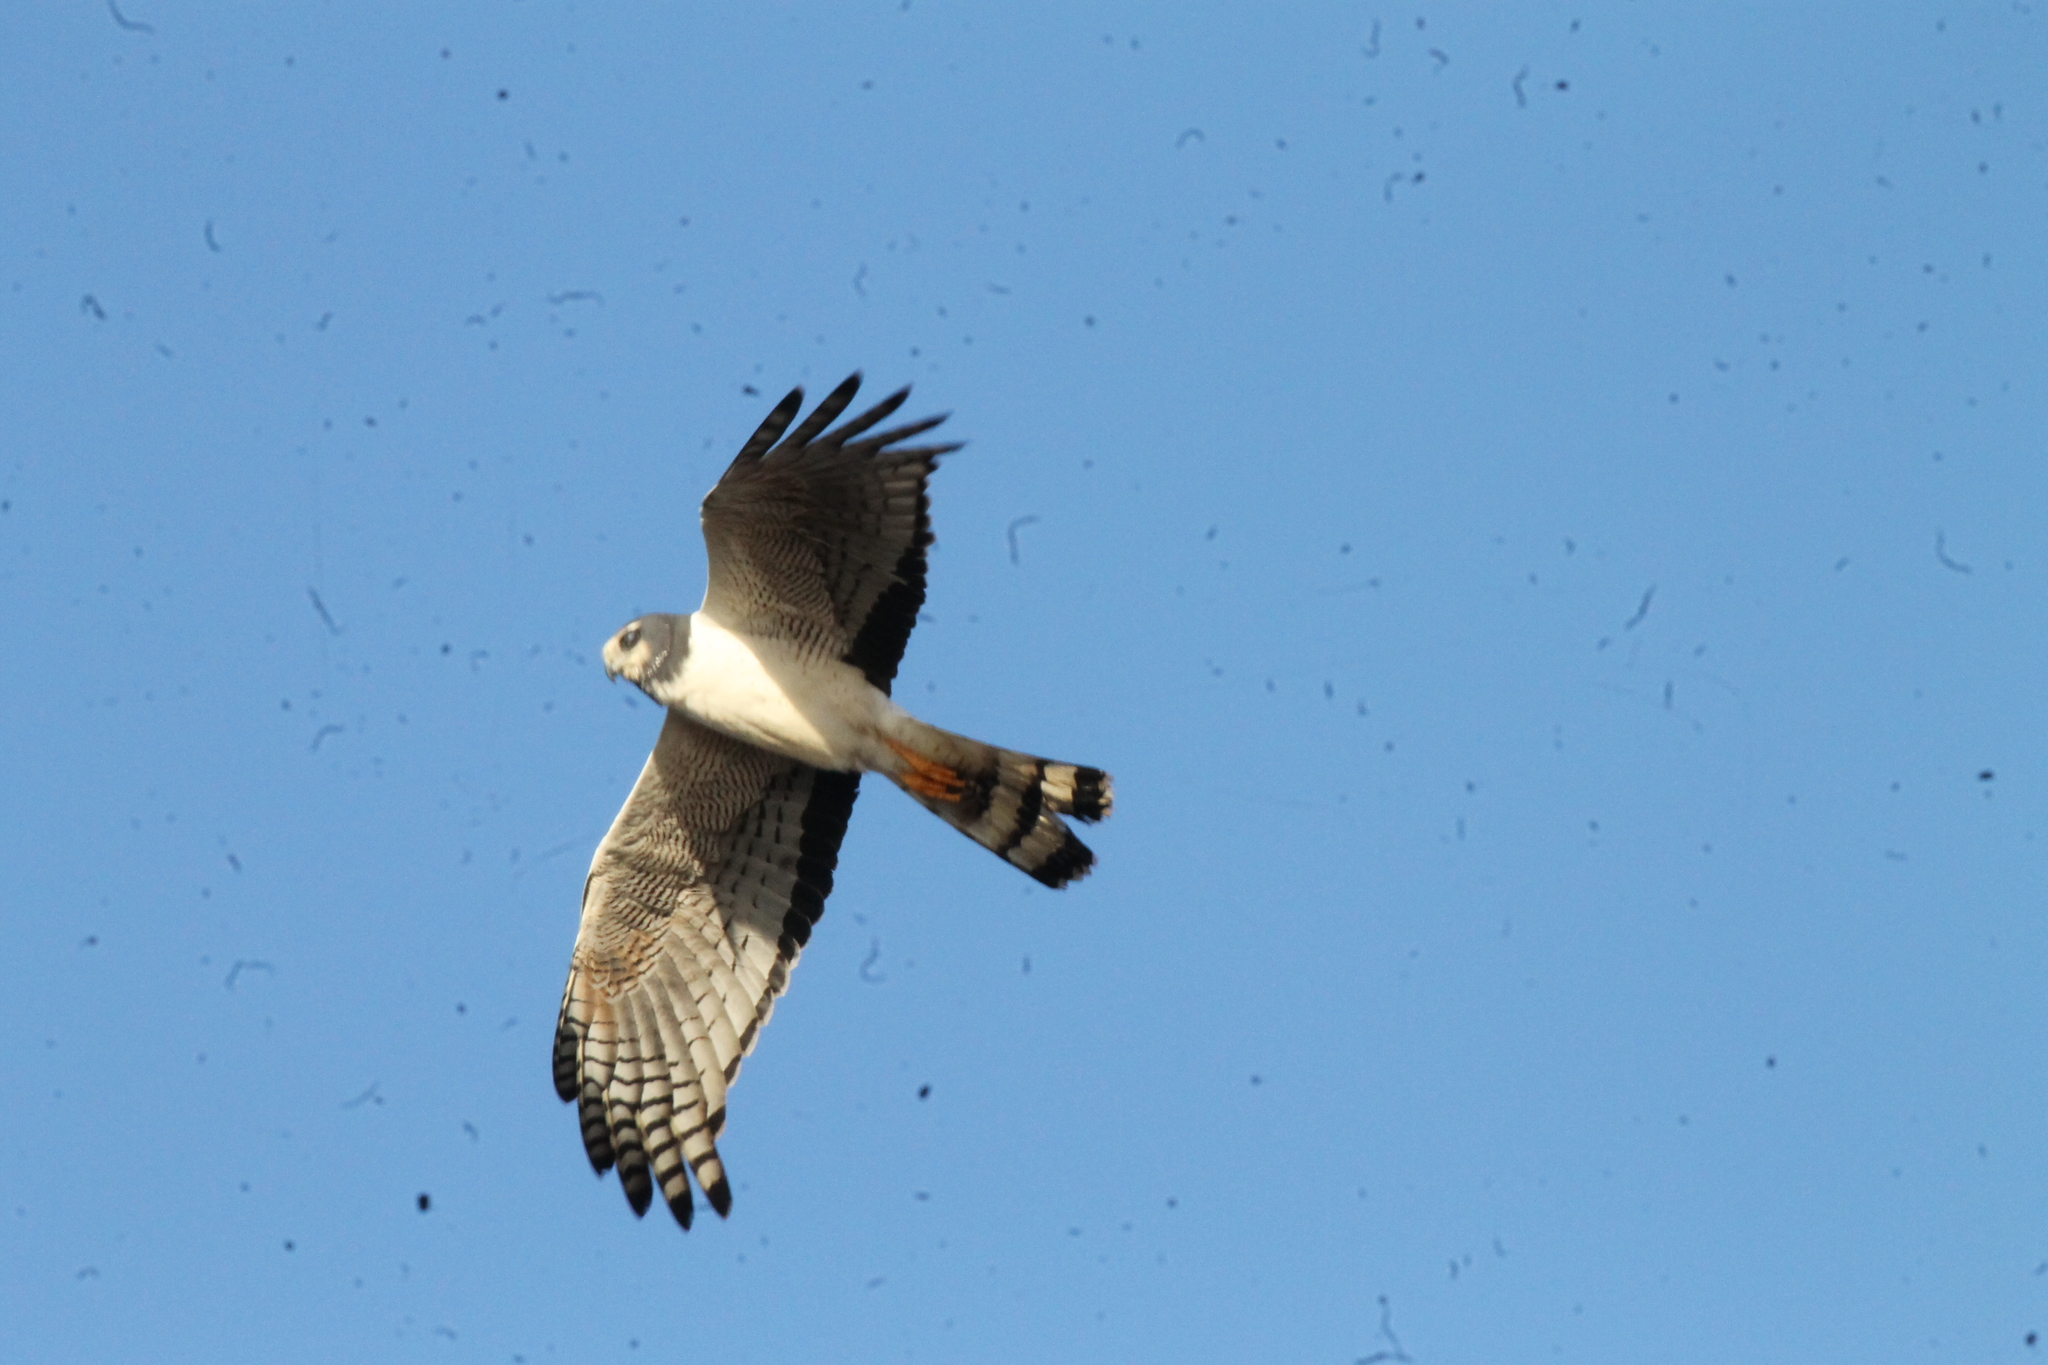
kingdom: Animalia
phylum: Chordata
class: Aves
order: Accipitriformes
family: Accipitridae
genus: Circus
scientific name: Circus buffoni
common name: Long-winged harrier
